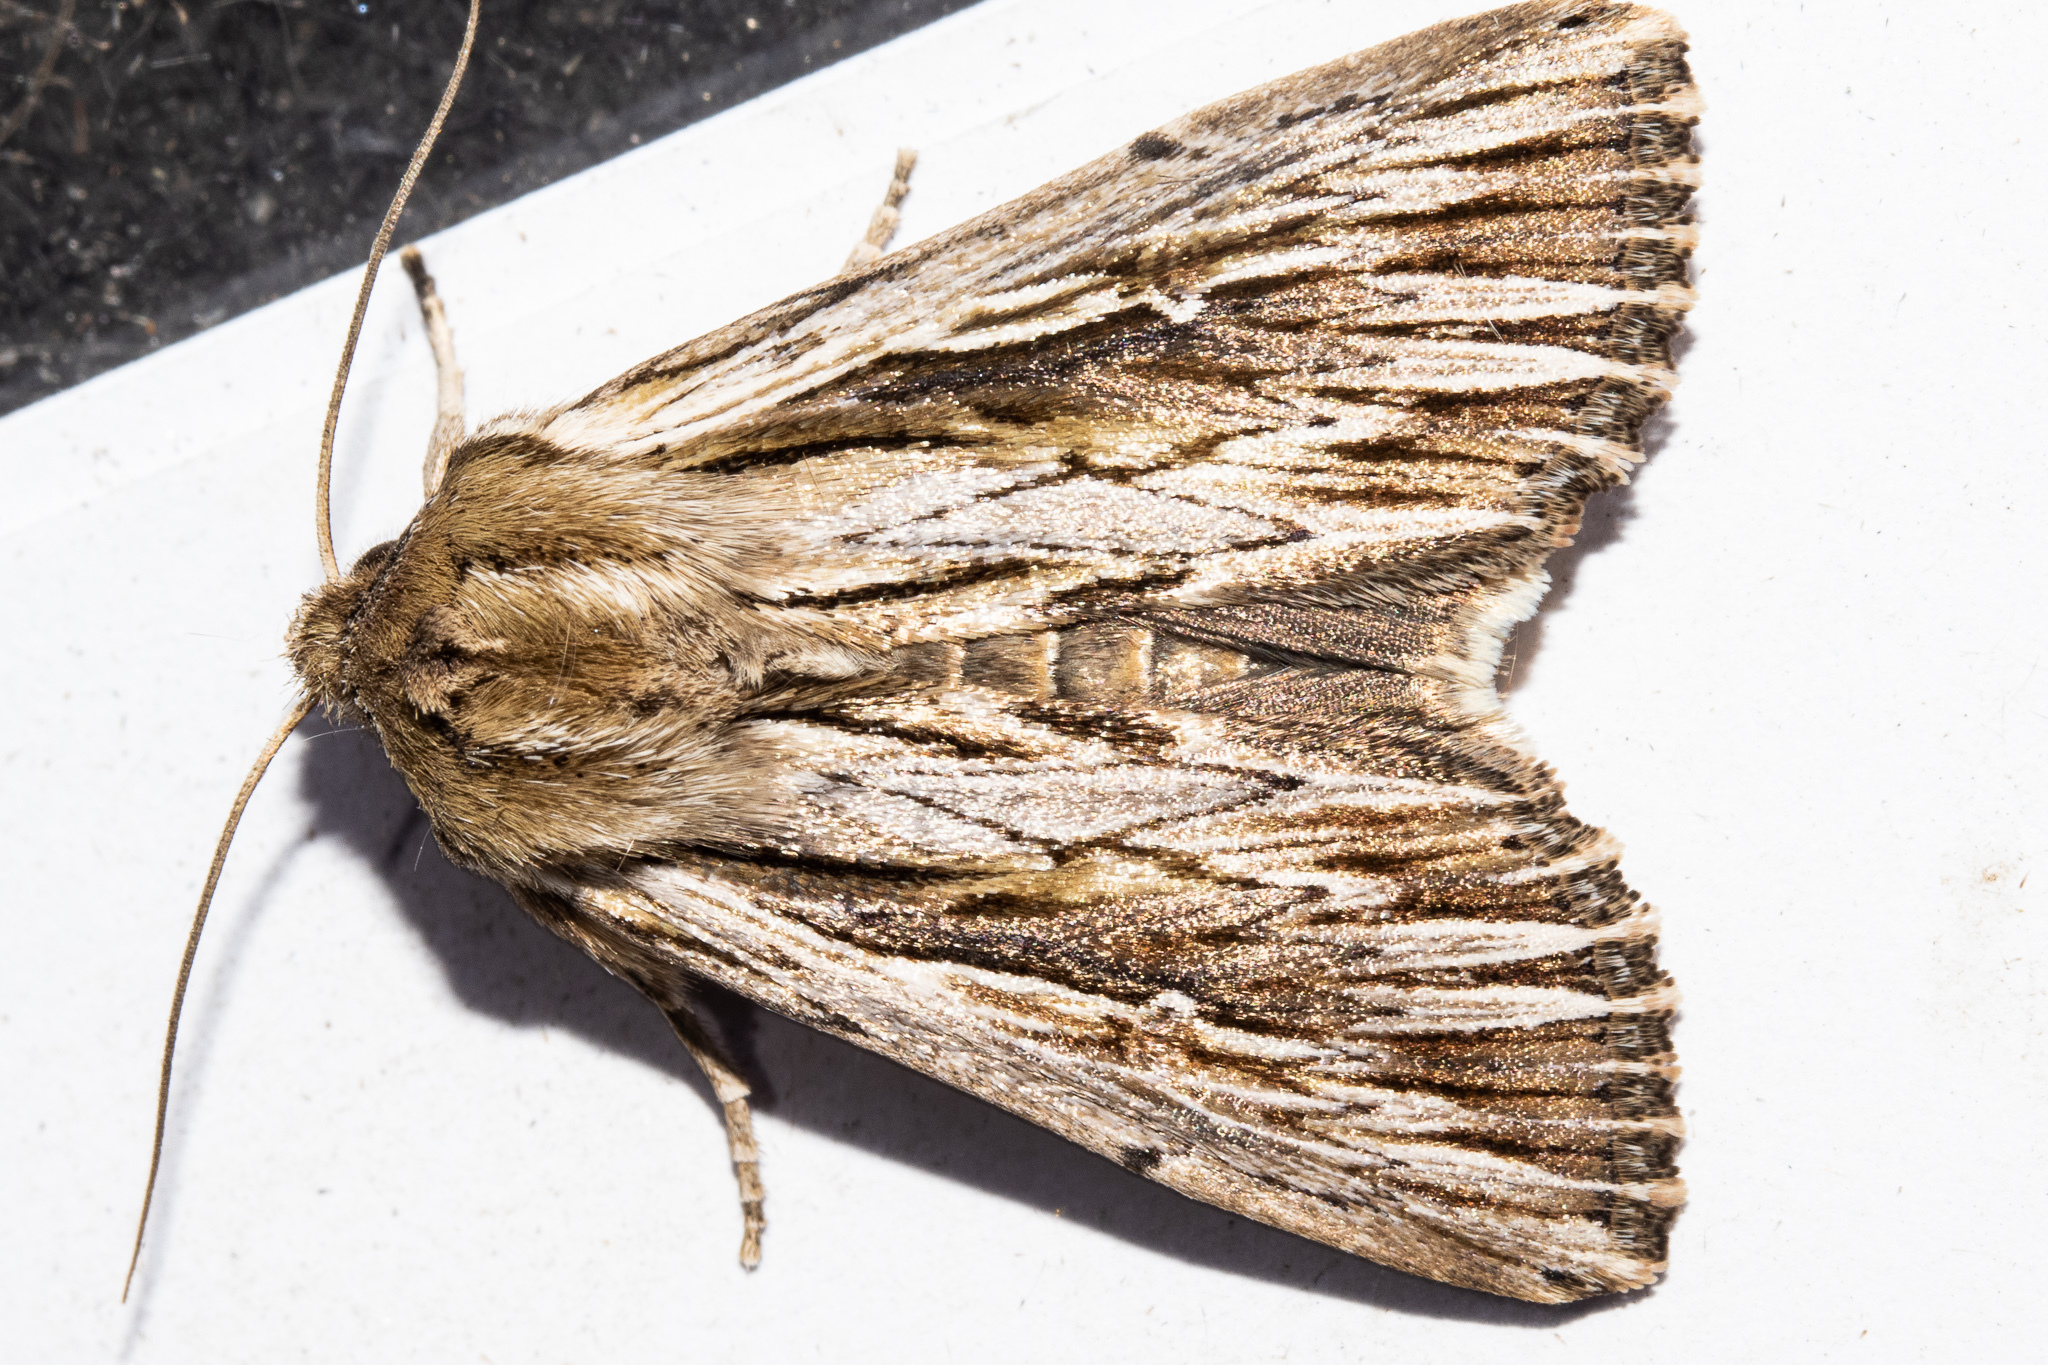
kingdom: Animalia
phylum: Arthropoda
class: Insecta
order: Lepidoptera
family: Noctuidae
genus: Persectania
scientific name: Persectania aversa
